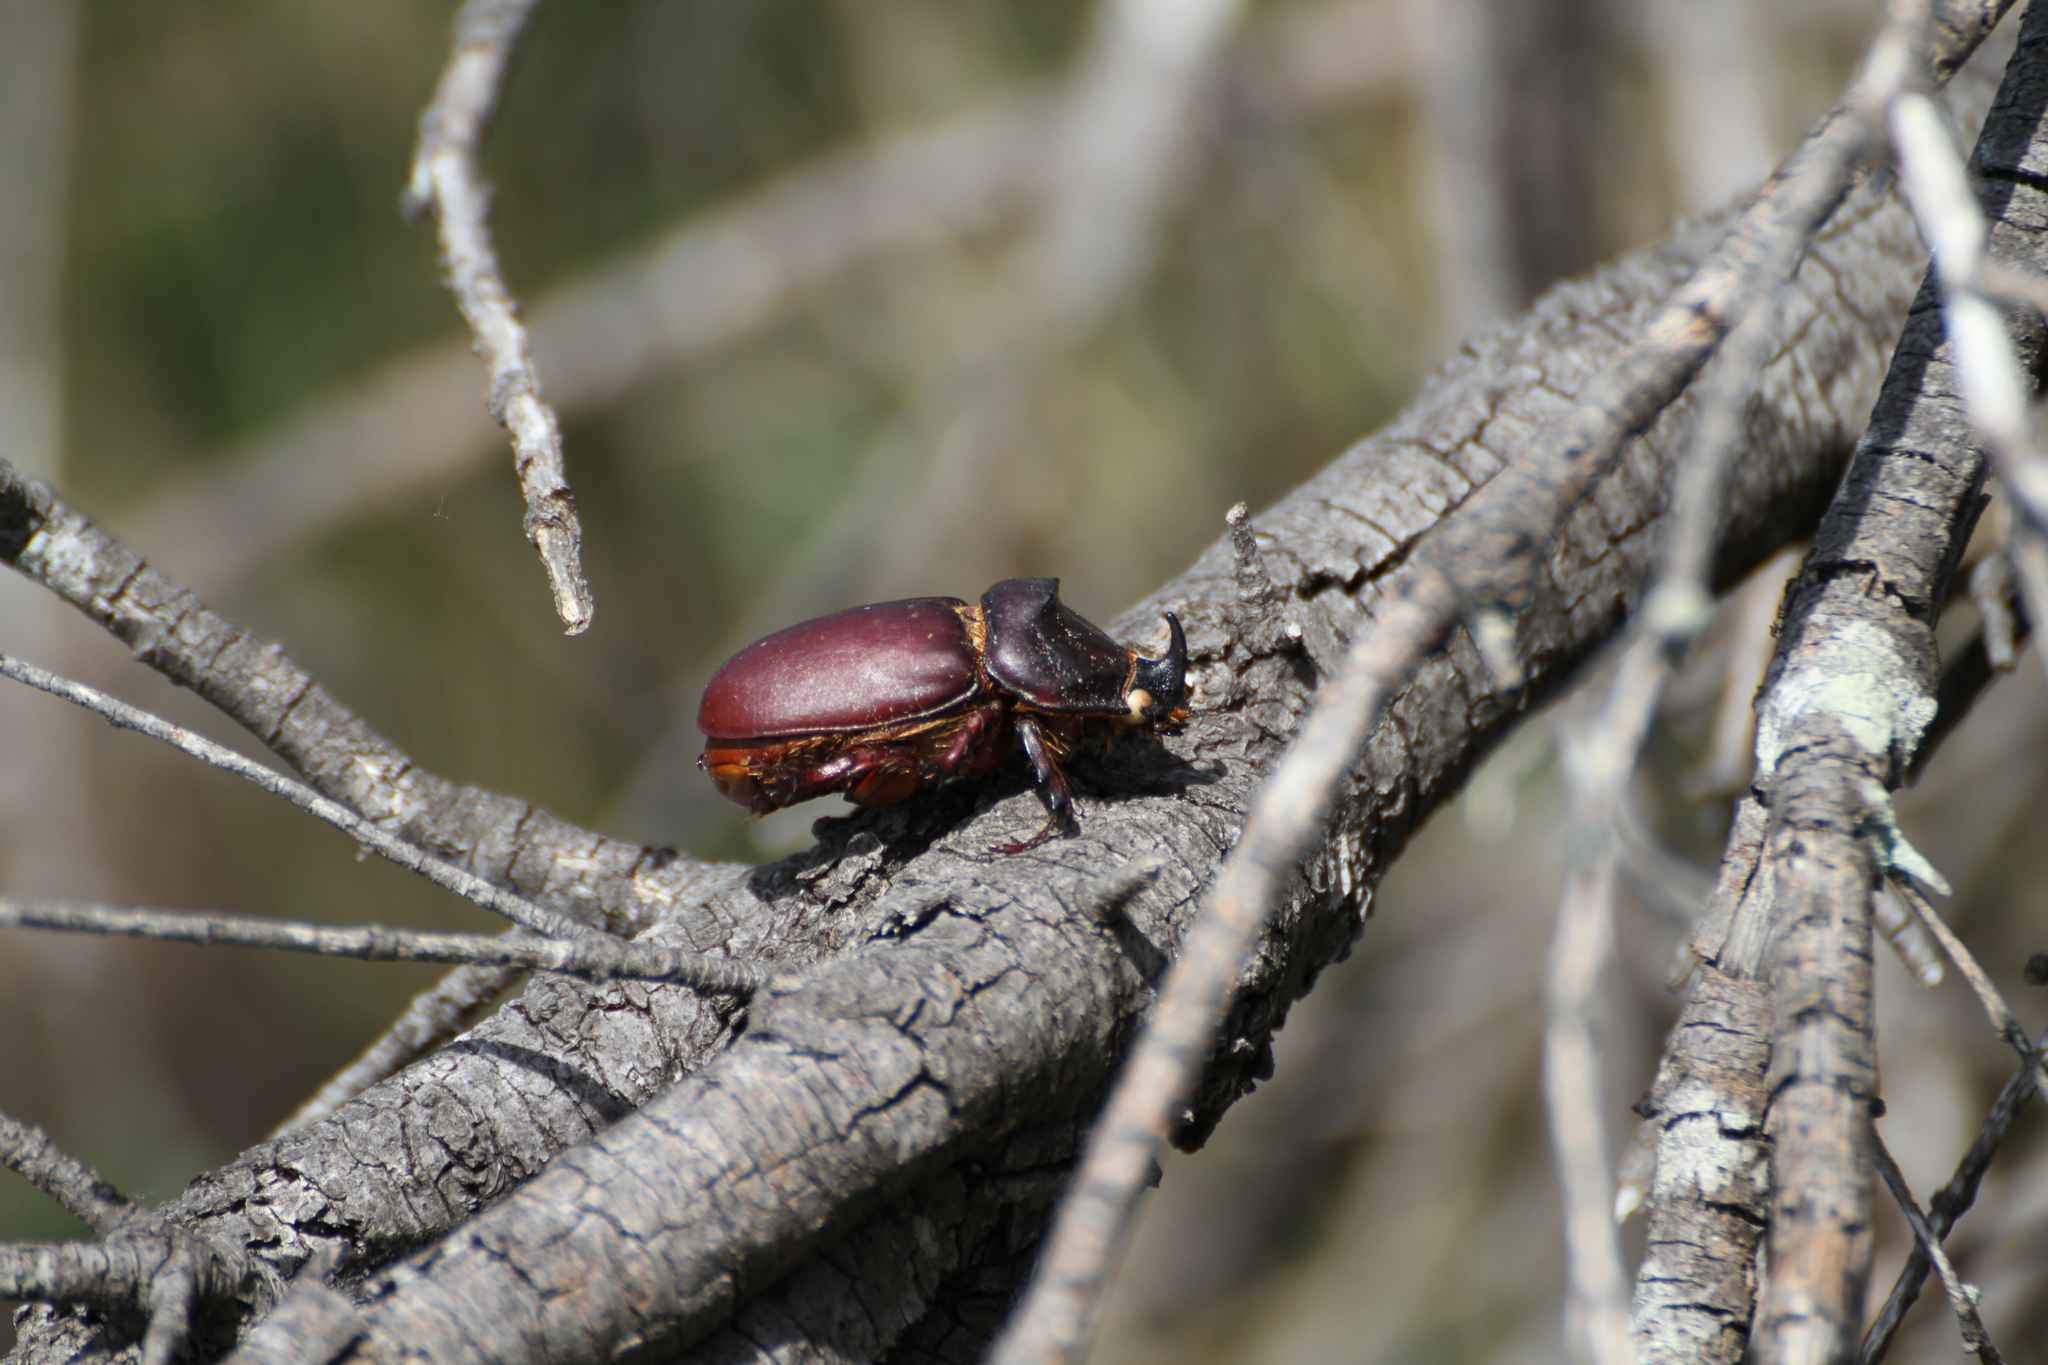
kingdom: Animalia
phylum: Arthropoda
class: Insecta
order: Coleoptera
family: Scarabaeidae
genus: Oryctes
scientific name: Oryctes nasicornis
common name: European rhinoceros beetle
